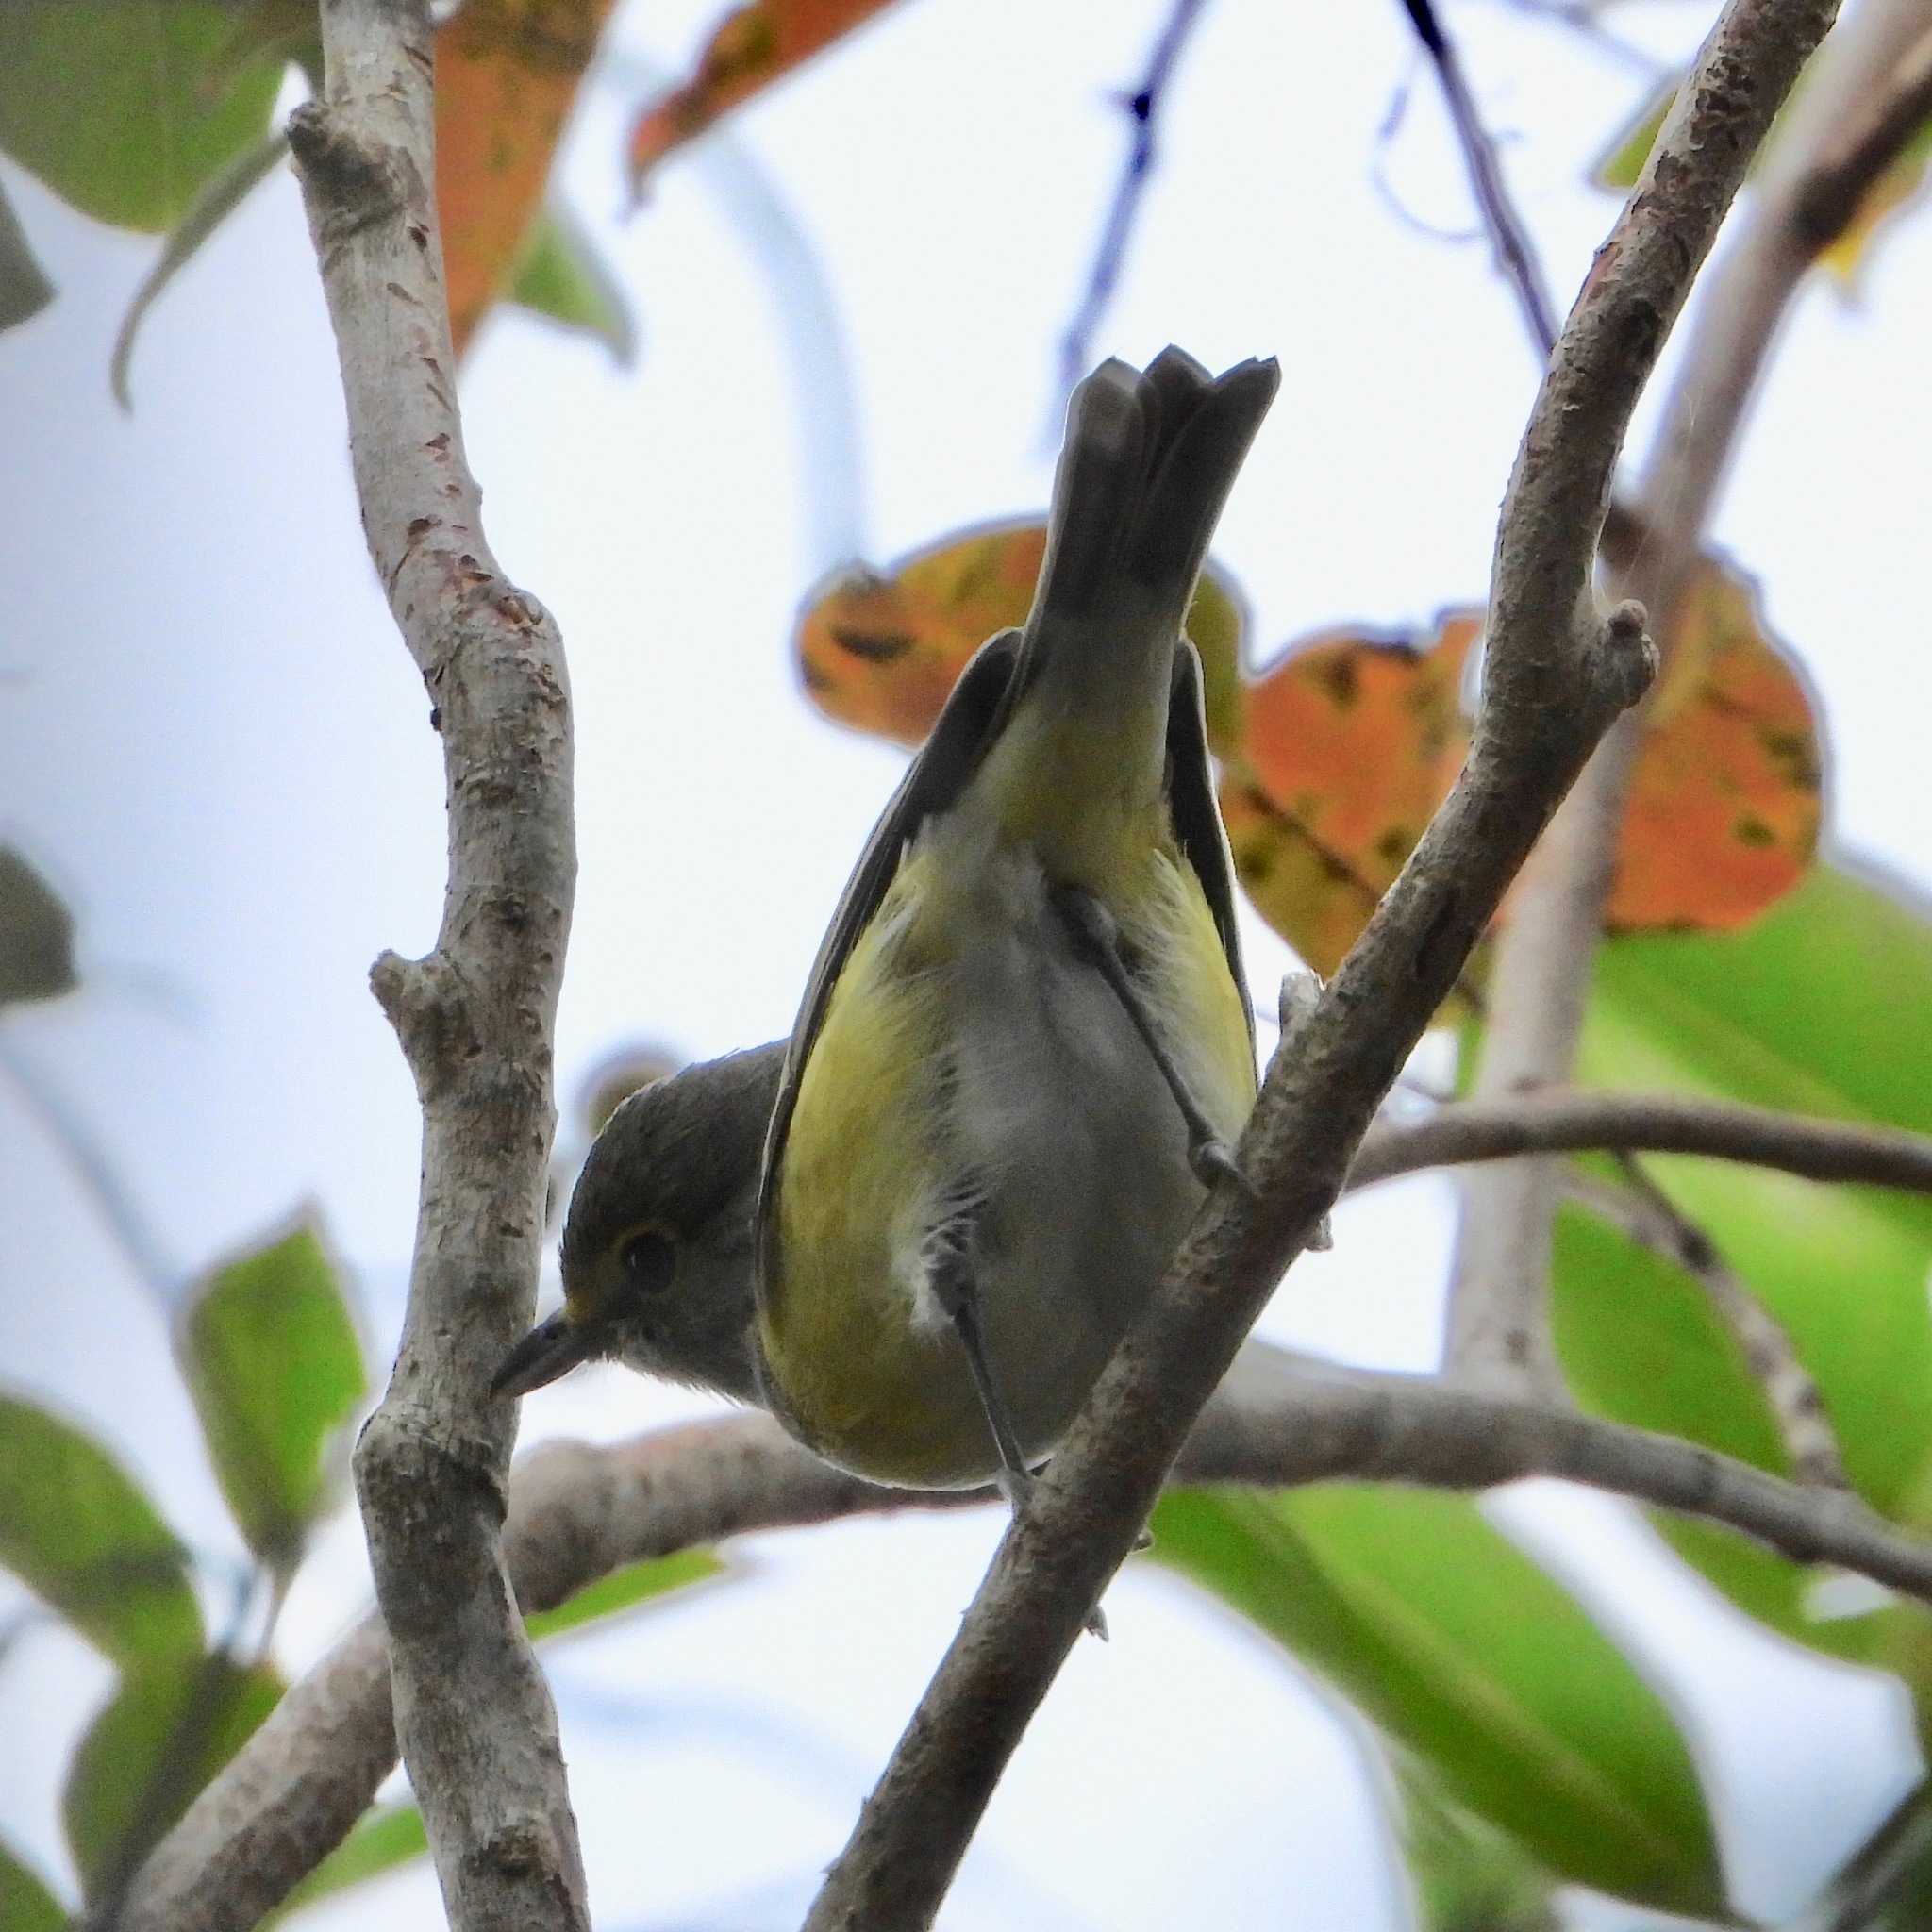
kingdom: Animalia
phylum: Chordata
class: Aves
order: Passeriformes
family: Vireonidae
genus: Vireo
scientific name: Vireo griseus
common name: White-eyed vireo
